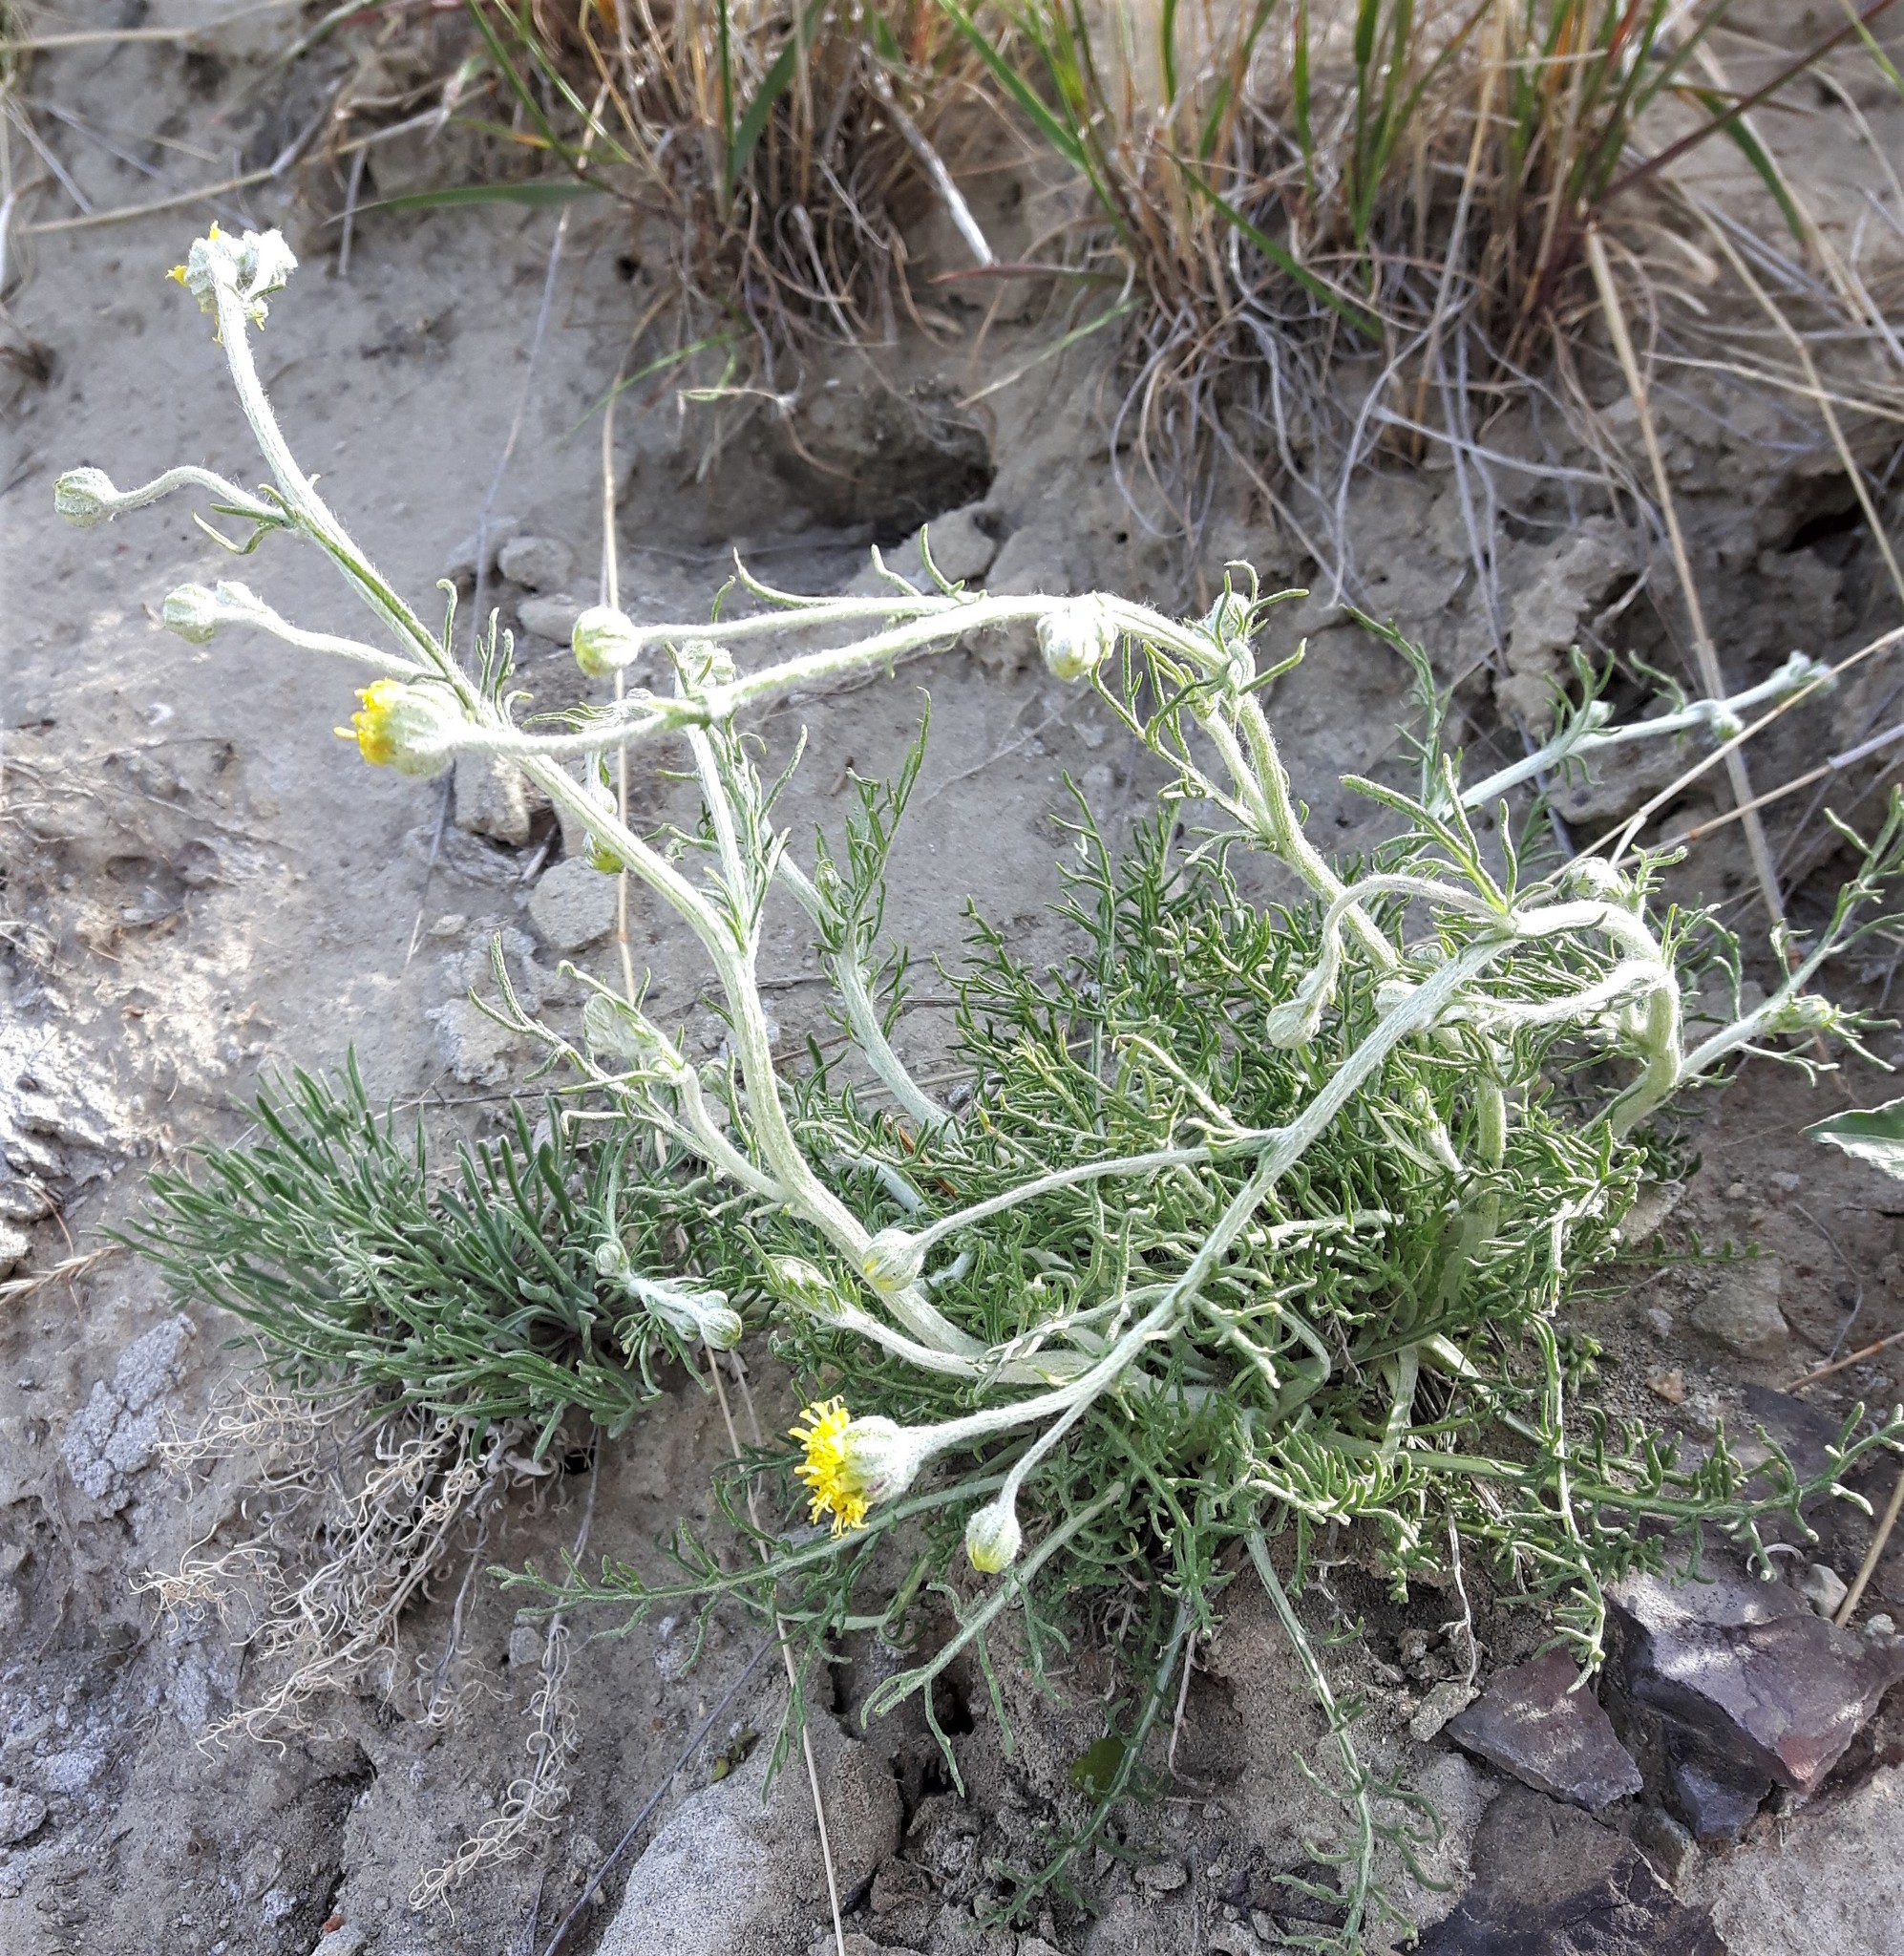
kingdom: Plantae
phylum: Tracheophyta
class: Magnoliopsida
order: Asterales
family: Asteraceae
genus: Hymenopappus
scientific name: Hymenopappus filifolius
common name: Columbia cutleaf
